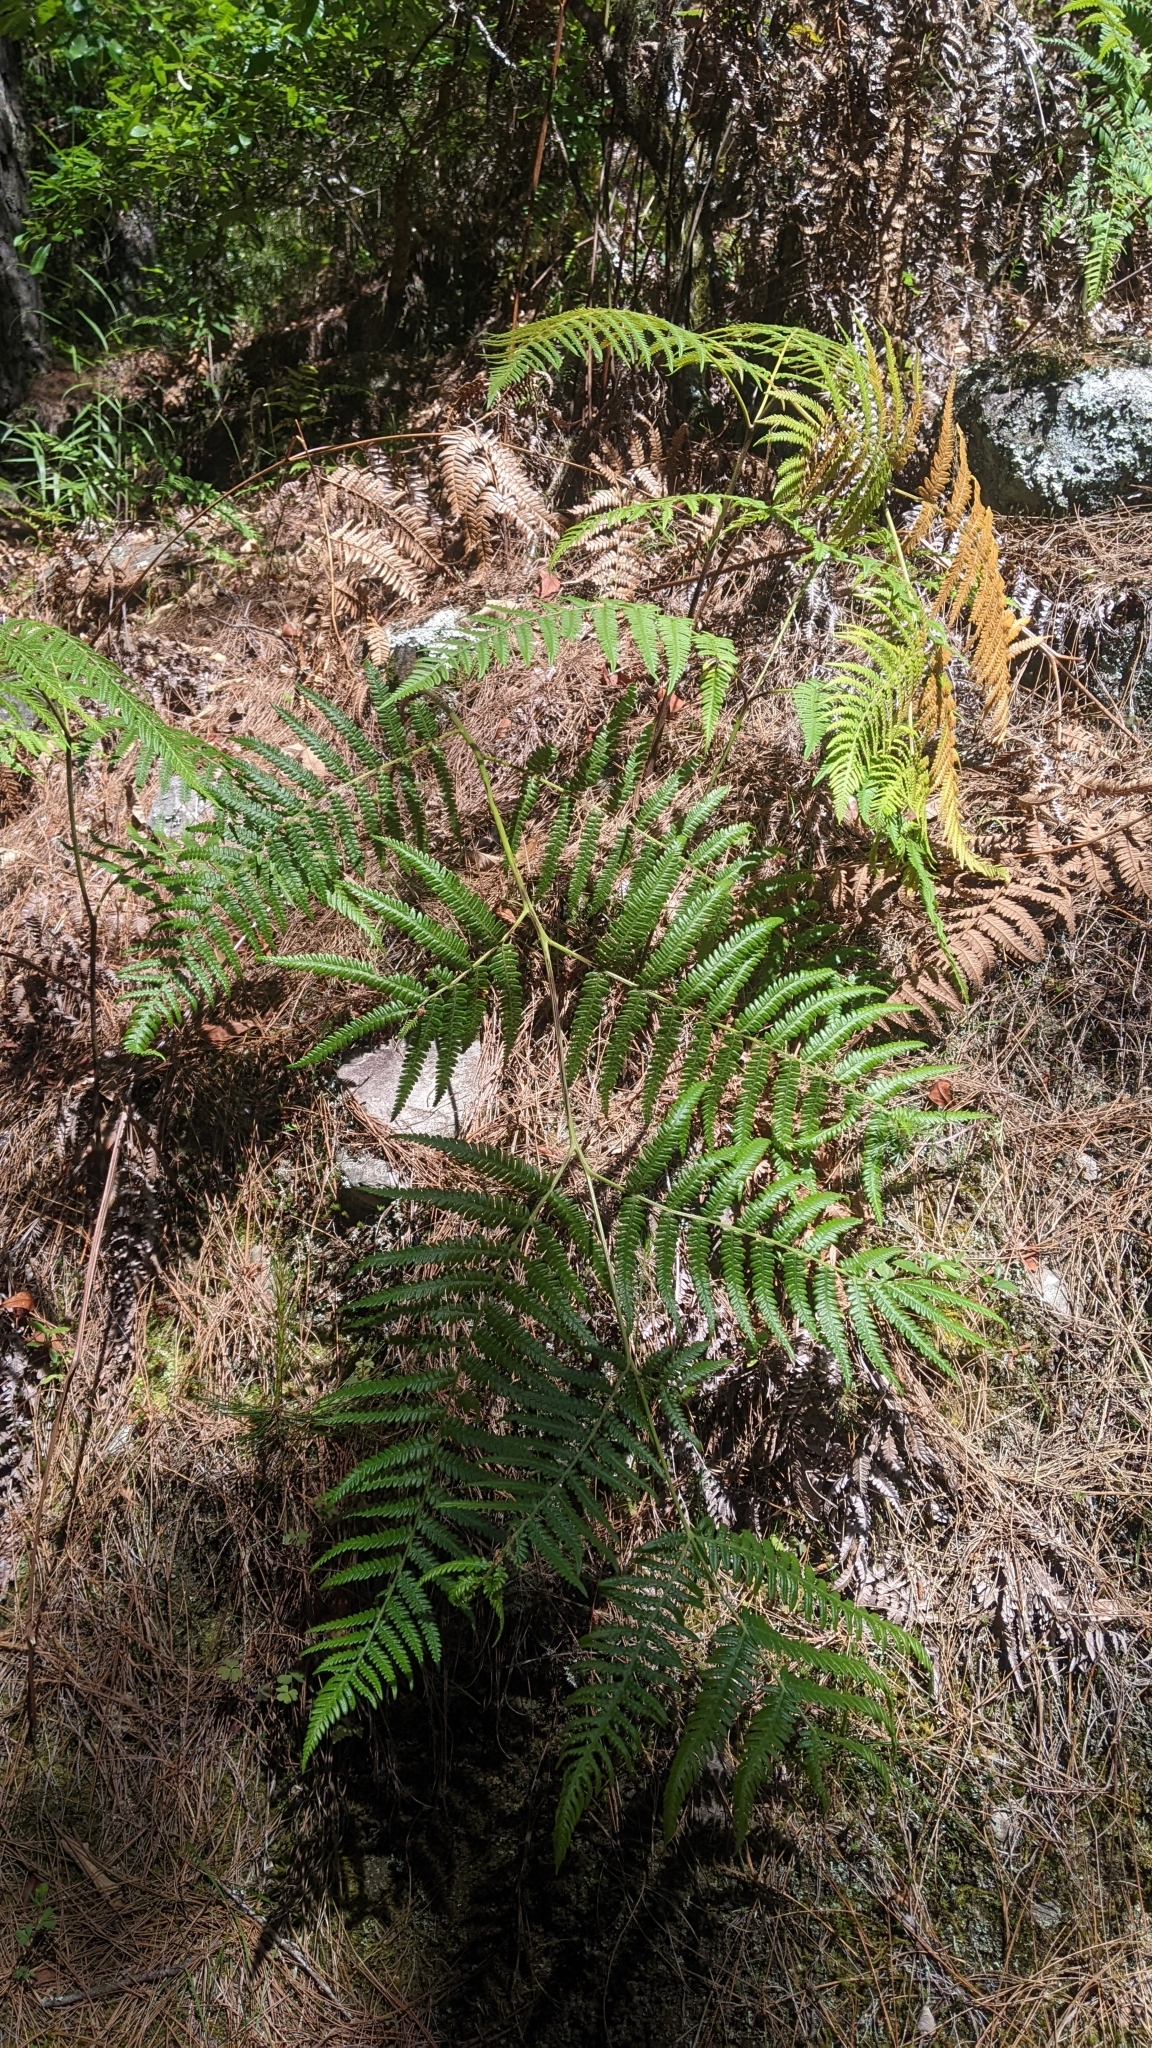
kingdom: Plantae
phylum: Tracheophyta
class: Polypodiopsida
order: Polypodiales
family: Dennstaedtiaceae
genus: Pteridium
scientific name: Pteridium aquilinum
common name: Bracken
